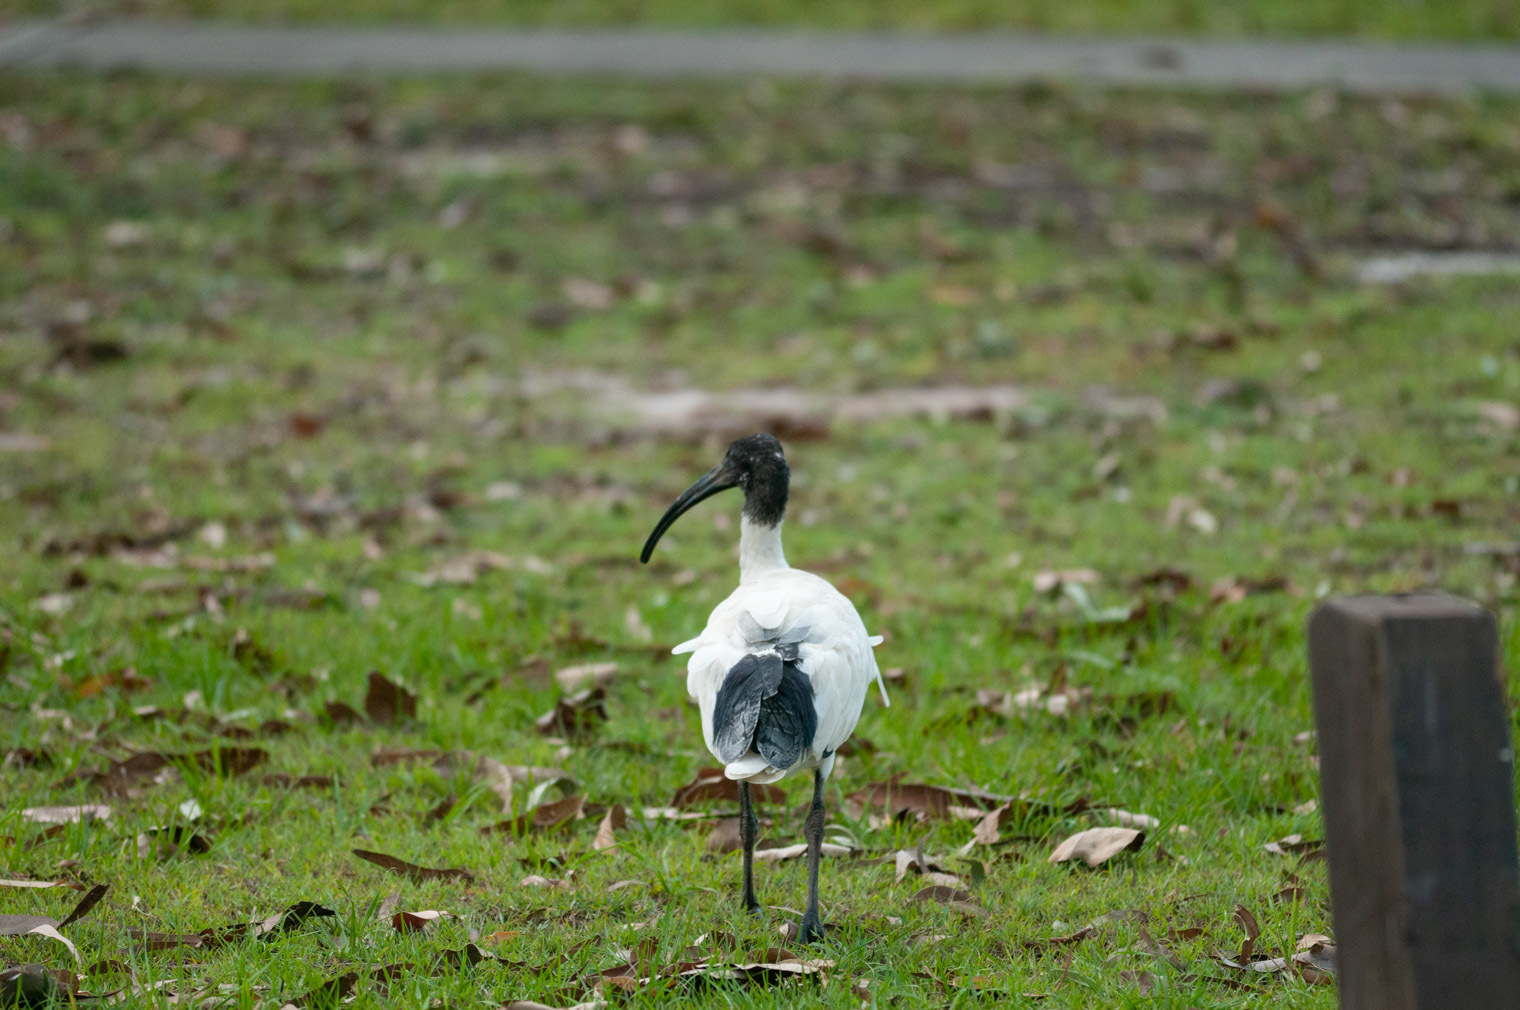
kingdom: Animalia
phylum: Chordata
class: Aves
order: Pelecaniformes
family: Threskiornithidae
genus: Threskiornis
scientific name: Threskiornis molucca
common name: Australian white ibis
